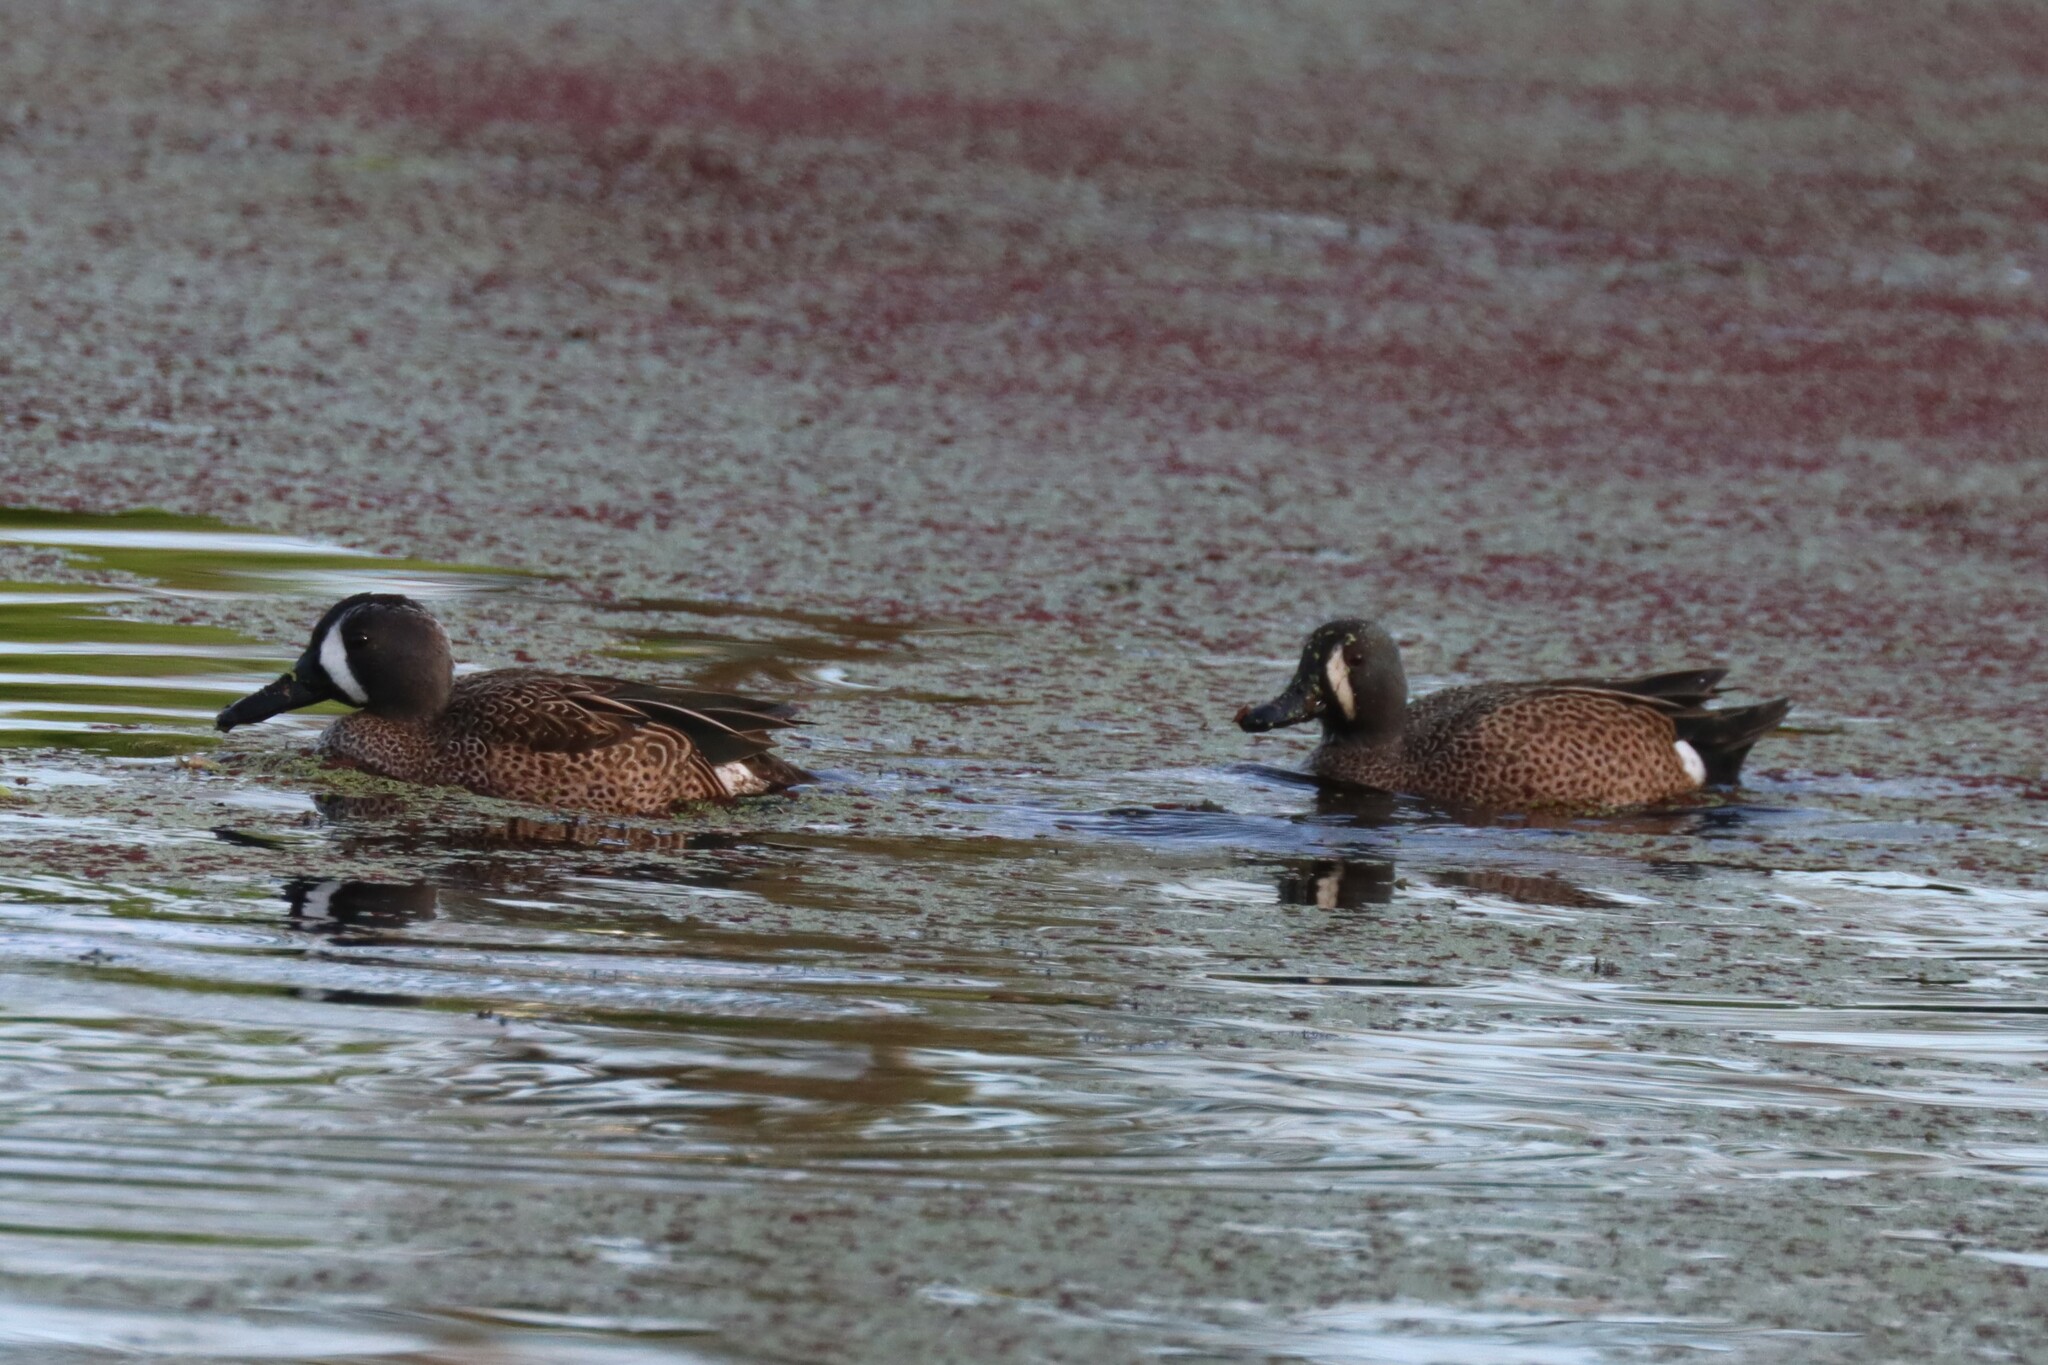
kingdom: Animalia
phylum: Chordata
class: Aves
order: Anseriformes
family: Anatidae
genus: Spatula
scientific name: Spatula discors
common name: Blue-winged teal
